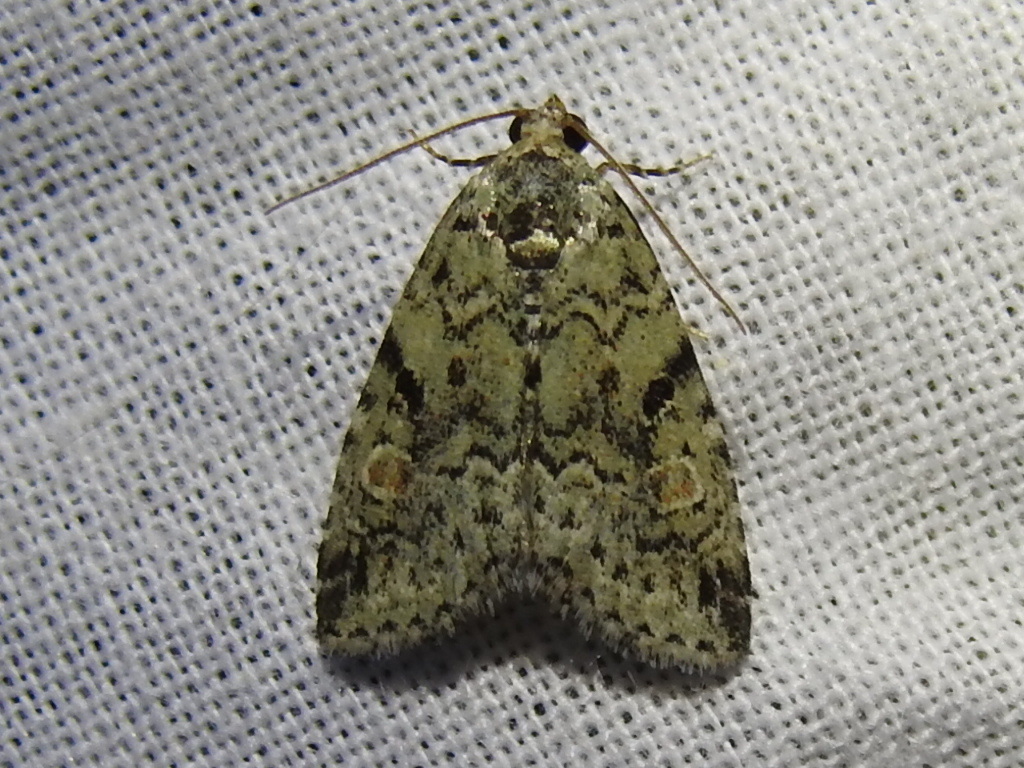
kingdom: Animalia
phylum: Arthropoda
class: Insecta
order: Lepidoptera
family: Noctuidae
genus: Maliattha
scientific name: Maliattha concinnimacula
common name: Red-spotted glyph
